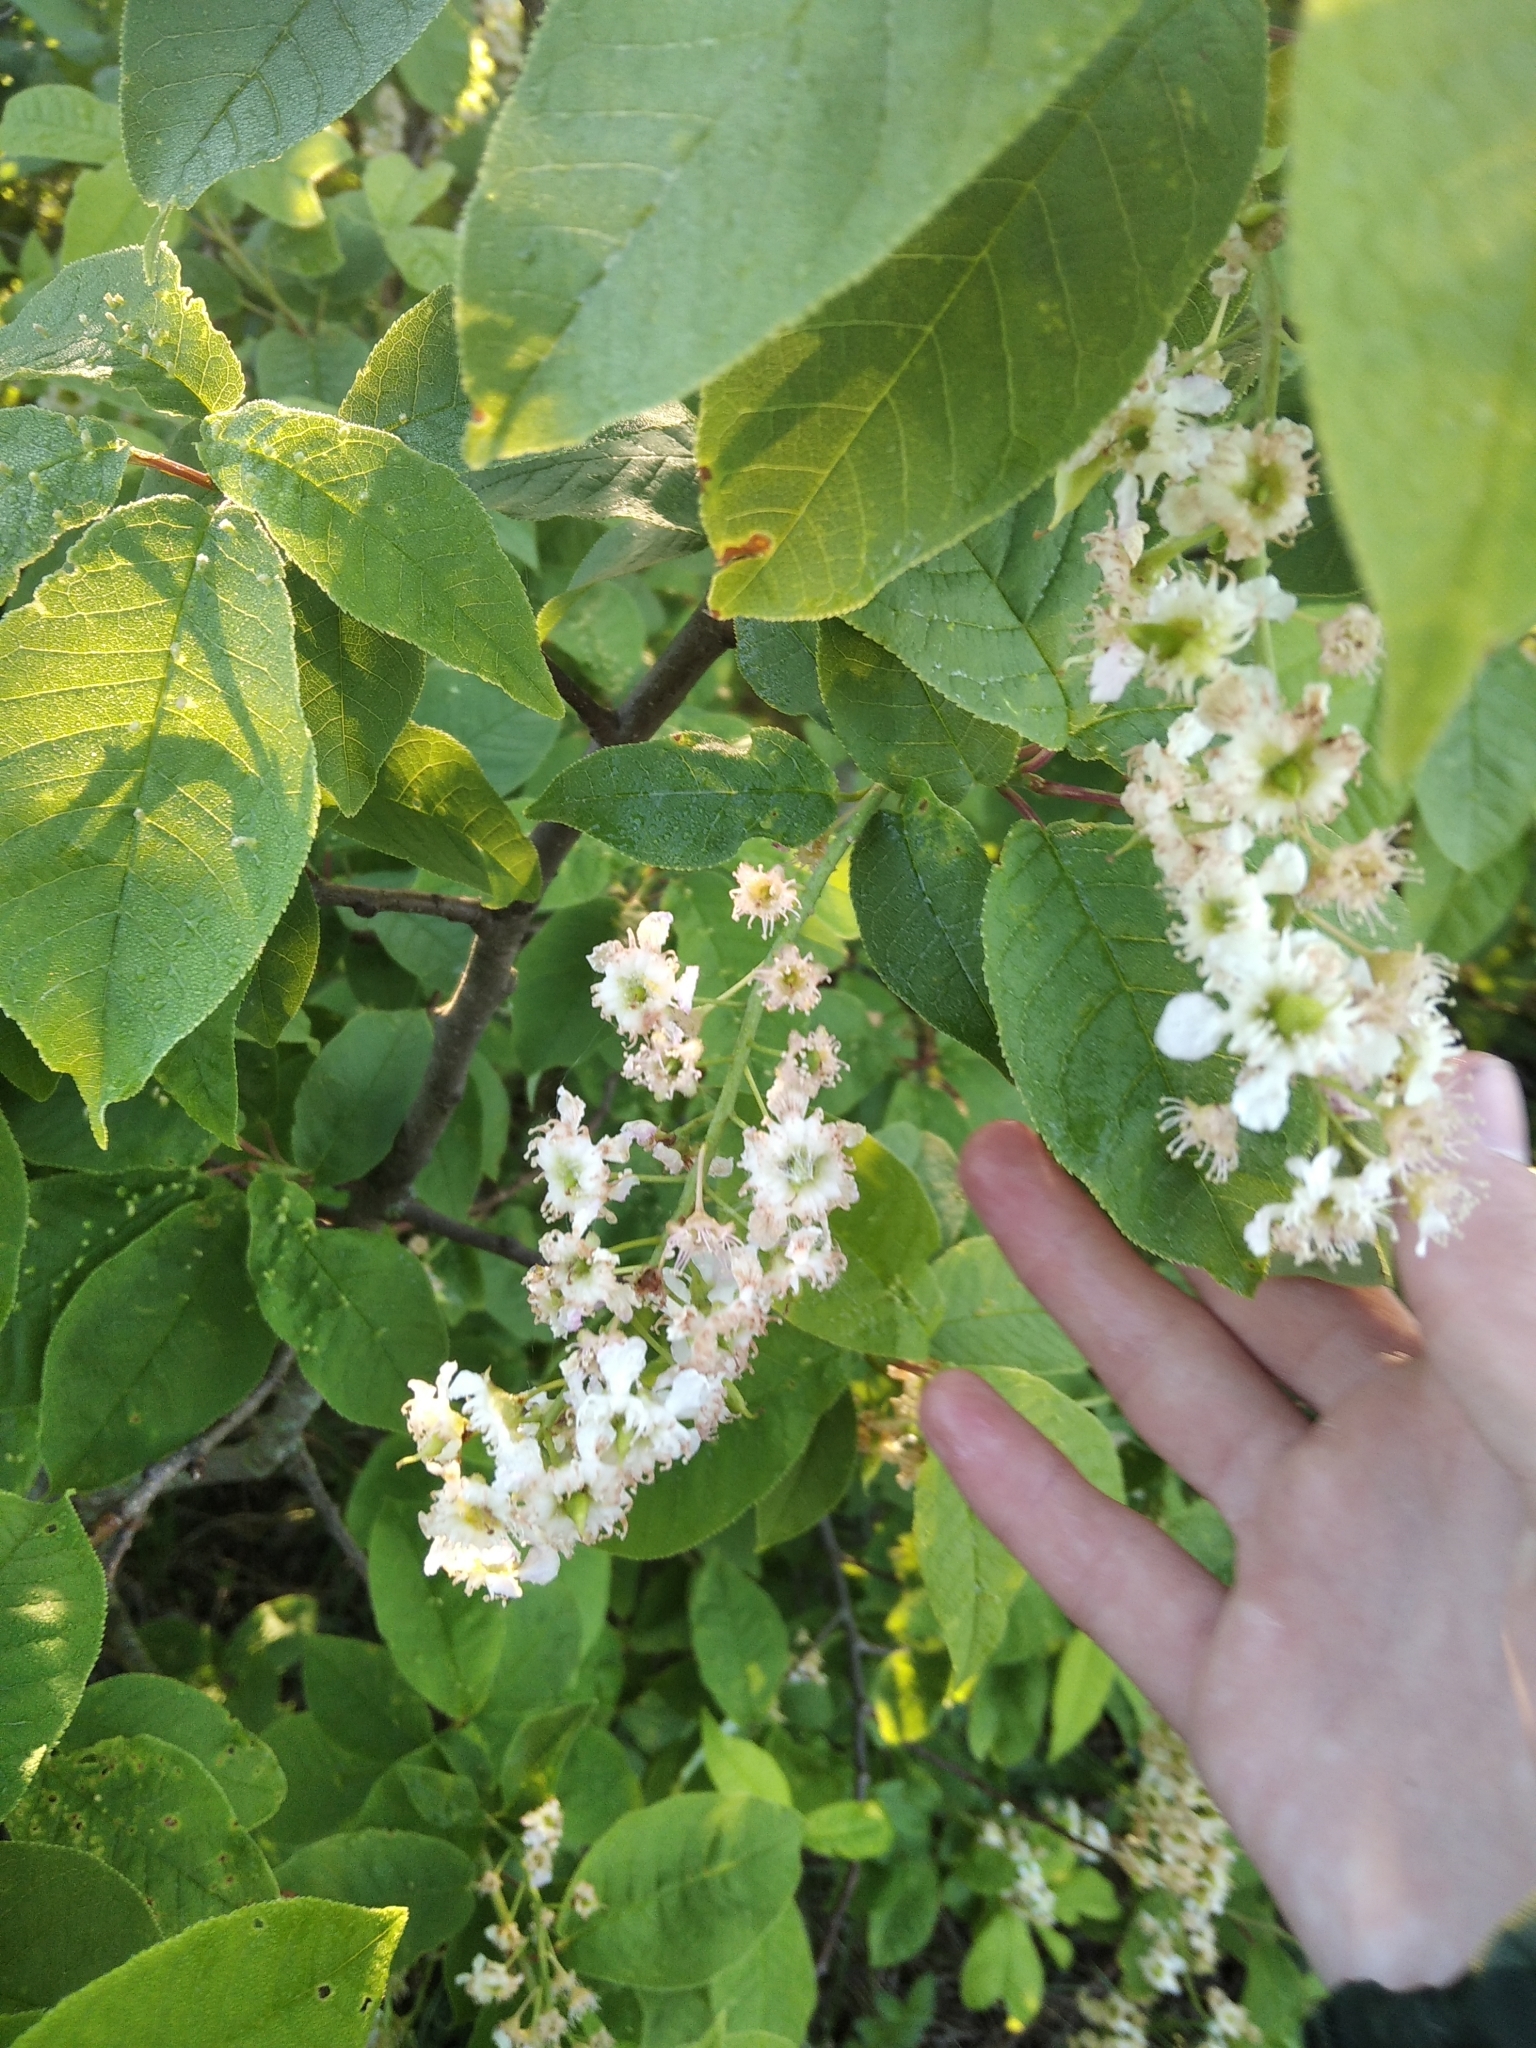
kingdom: Plantae
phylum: Tracheophyta
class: Magnoliopsida
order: Rosales
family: Rosaceae
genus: Prunus
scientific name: Prunus padus
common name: Bird cherry
